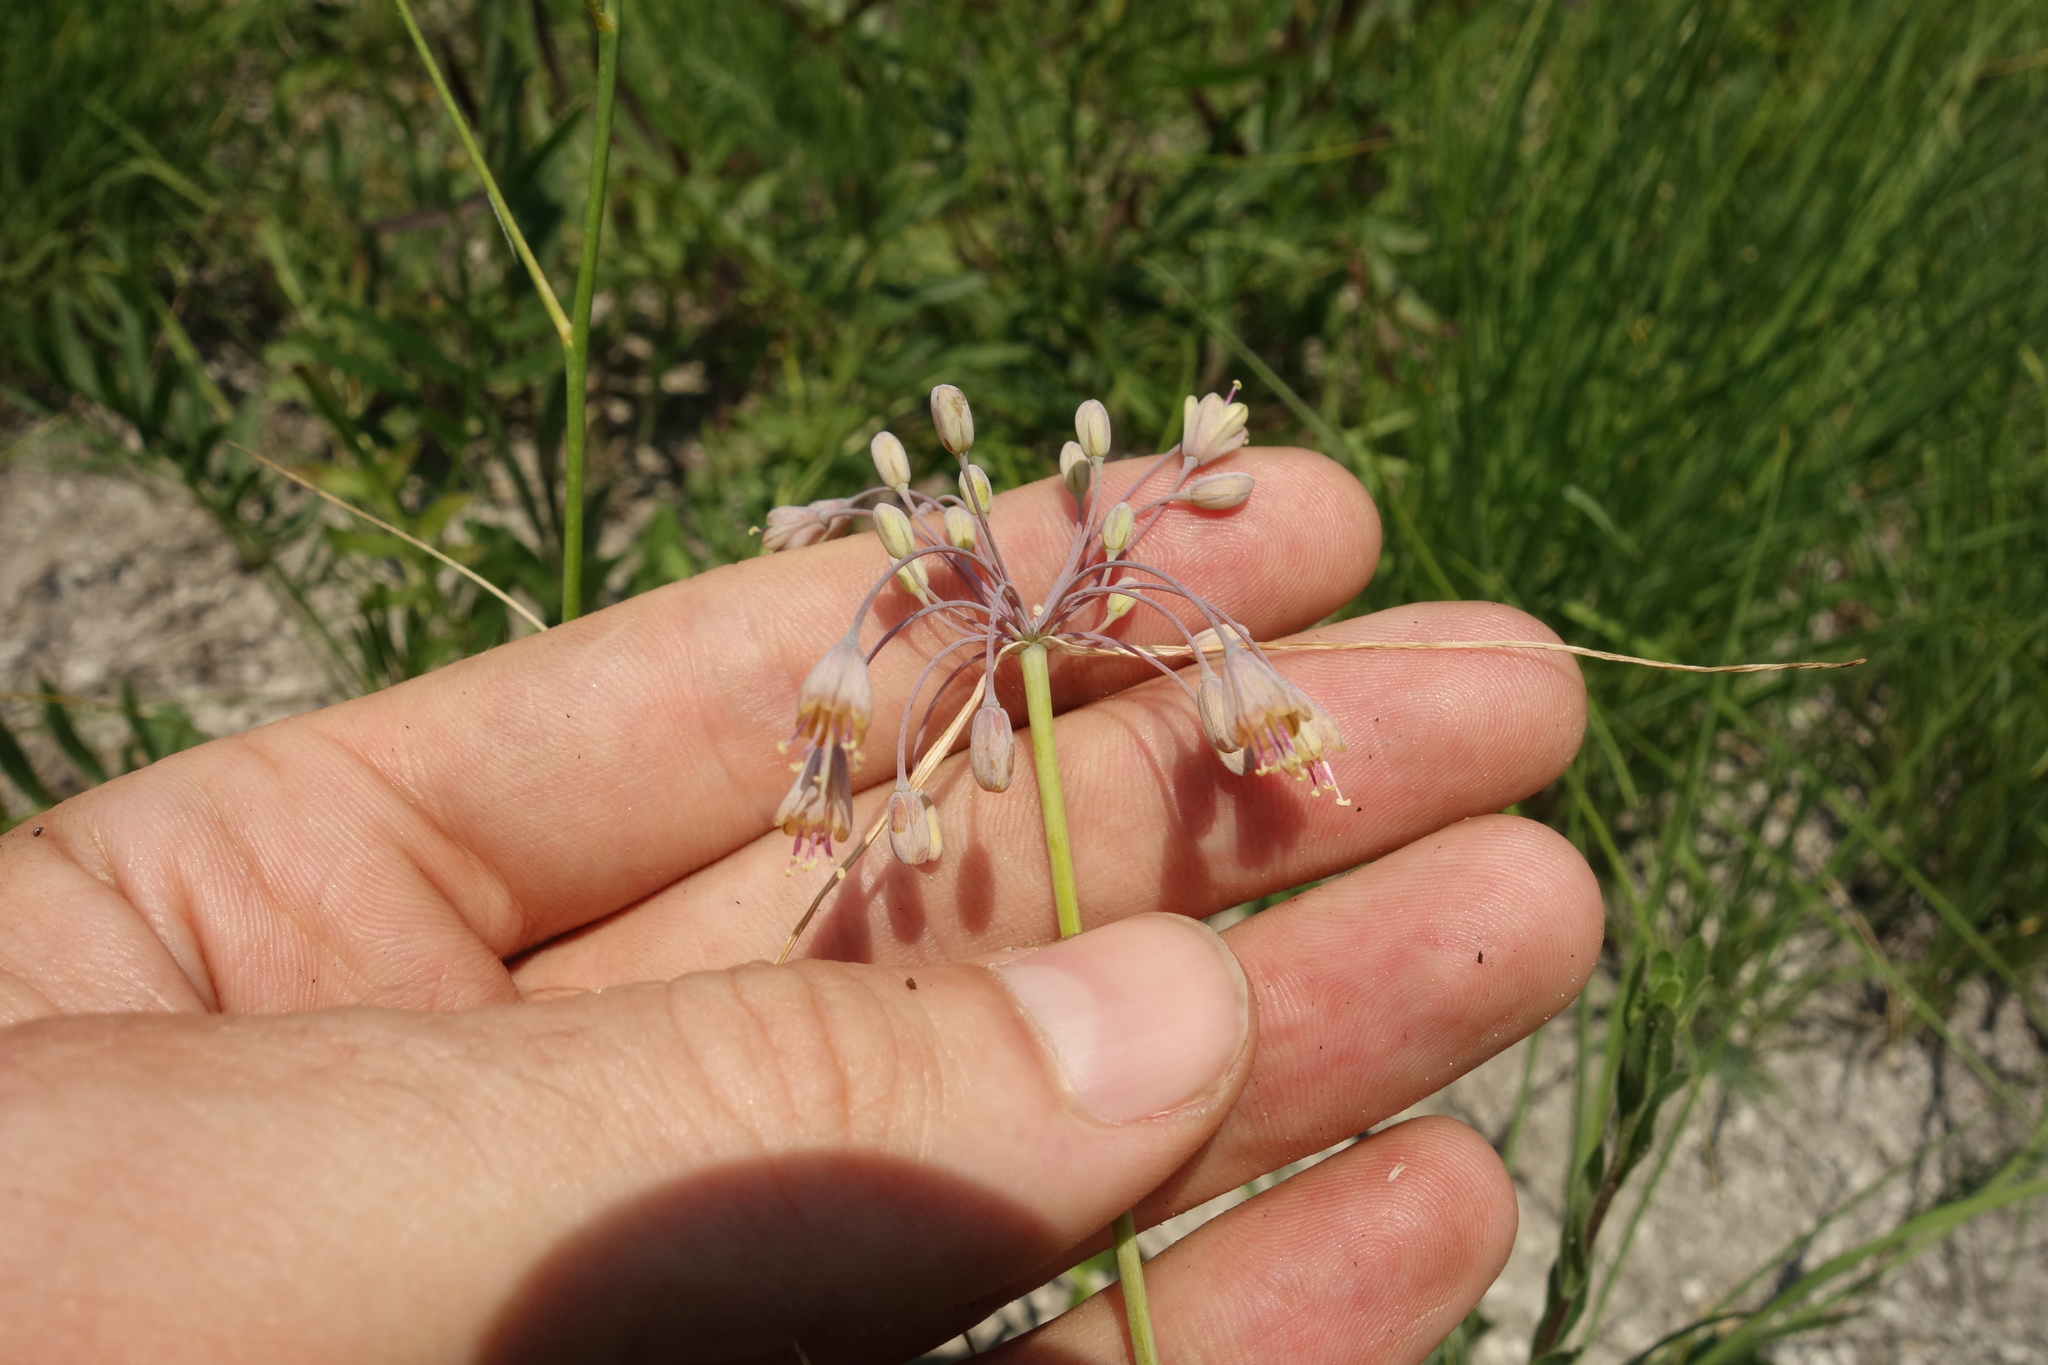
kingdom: Plantae
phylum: Tracheophyta
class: Liliopsida
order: Asparagales
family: Amaryllidaceae
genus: Allium
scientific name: Allium flavum
